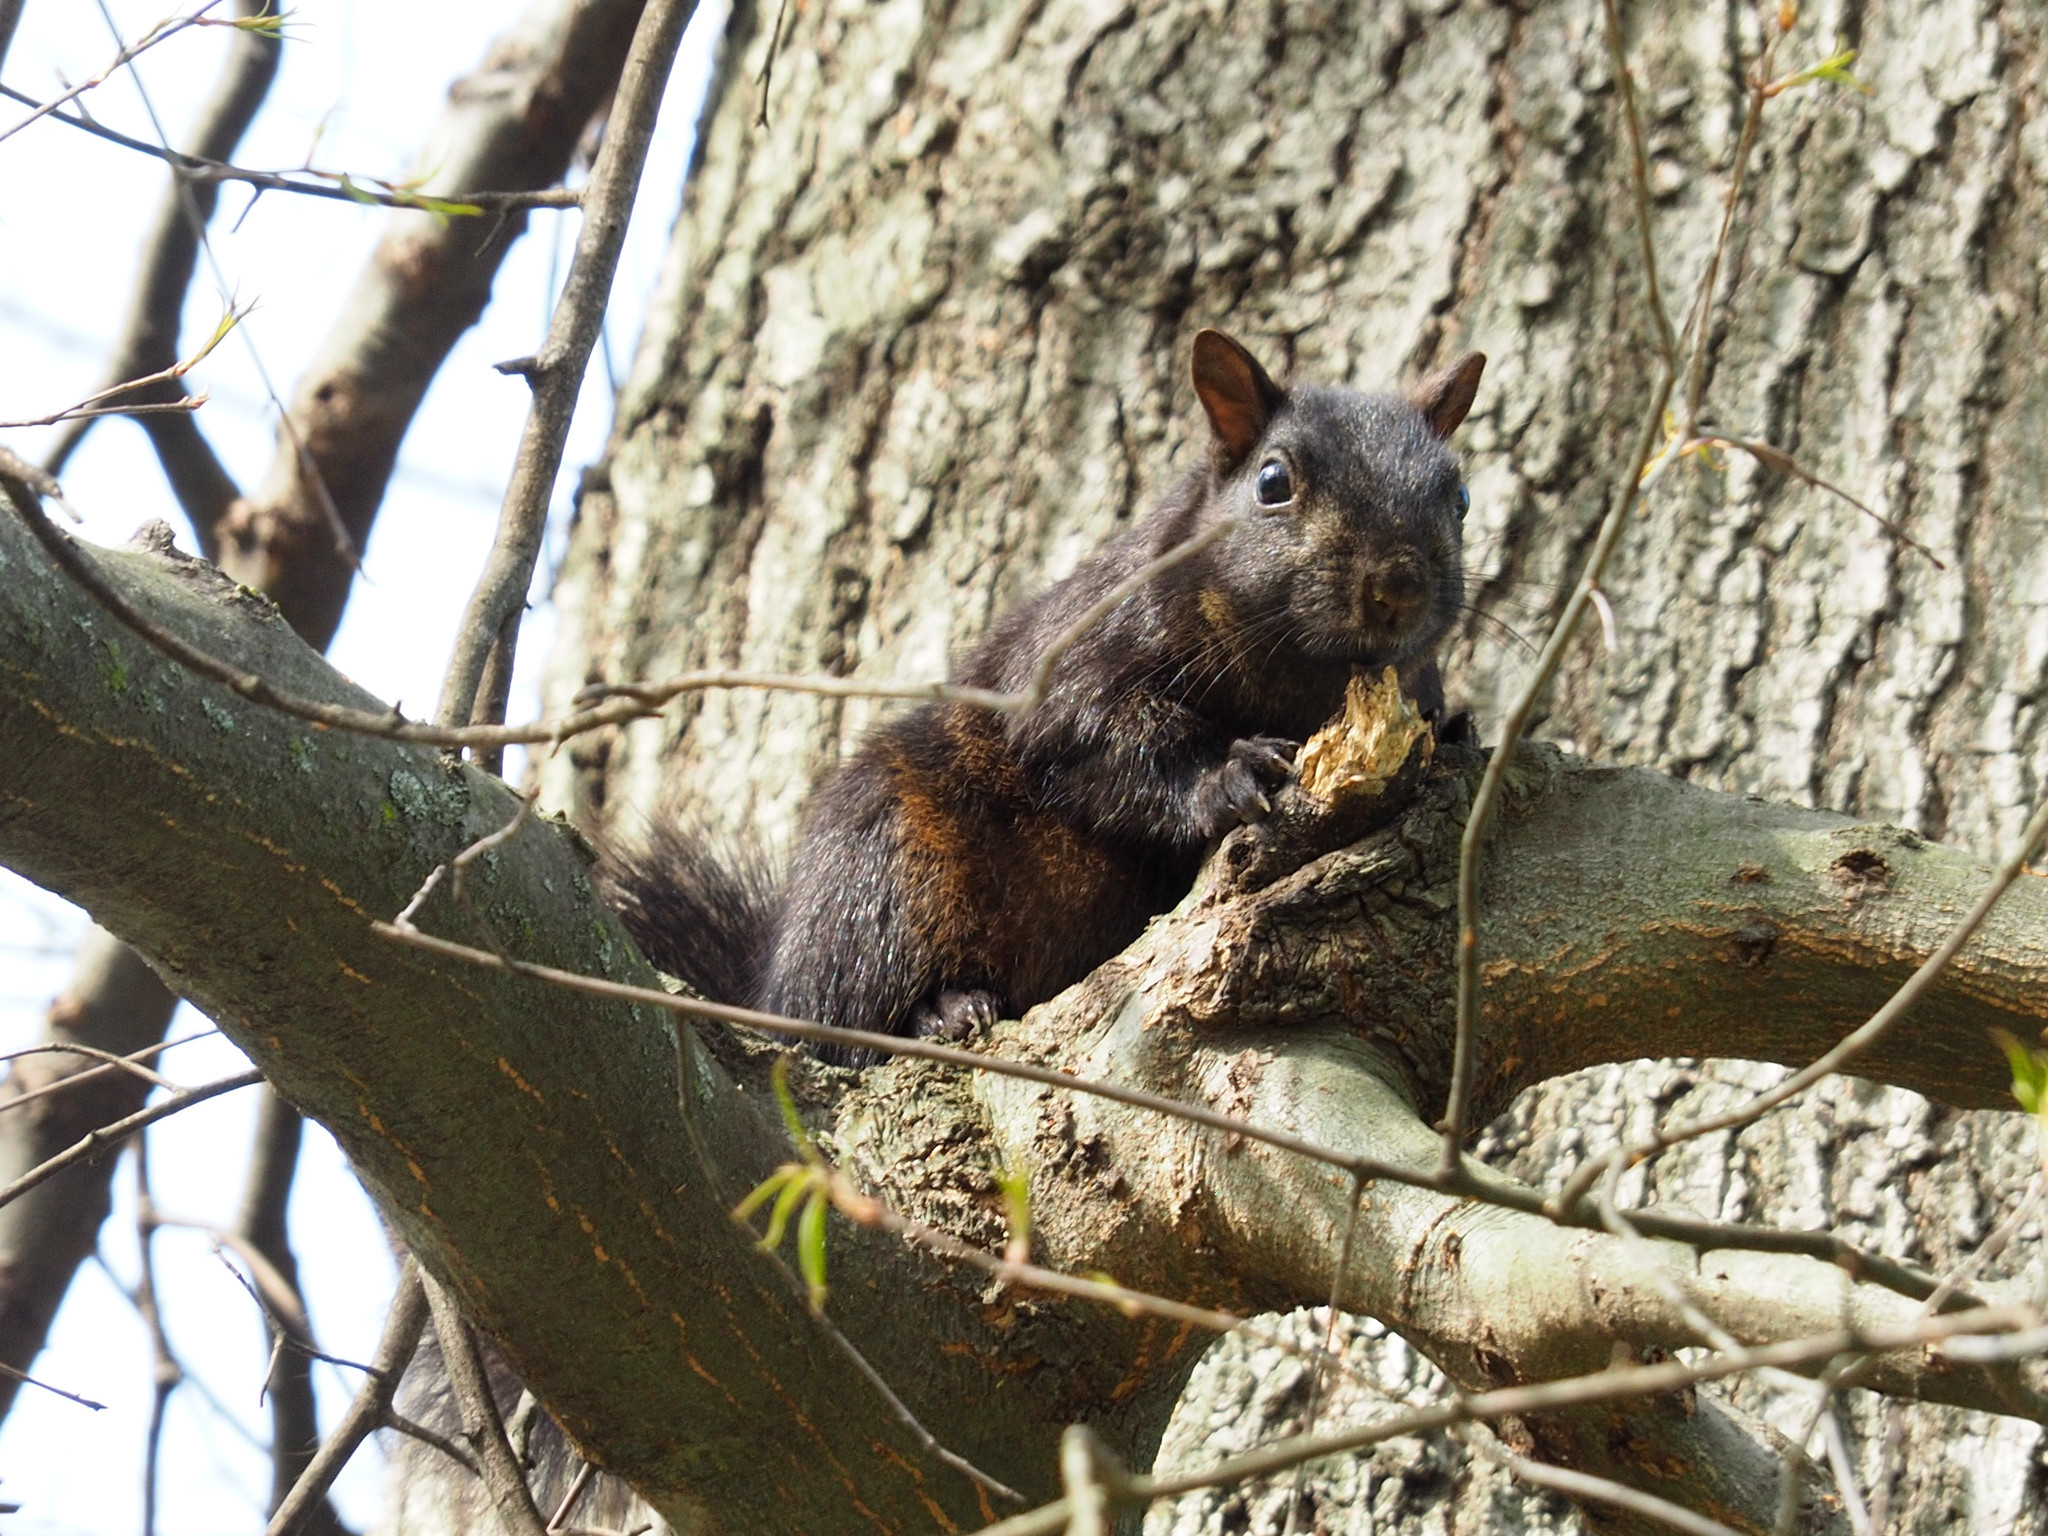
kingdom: Animalia
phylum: Chordata
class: Mammalia
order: Rodentia
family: Sciuridae
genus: Sciurus
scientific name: Sciurus carolinensis
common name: Eastern gray squirrel
